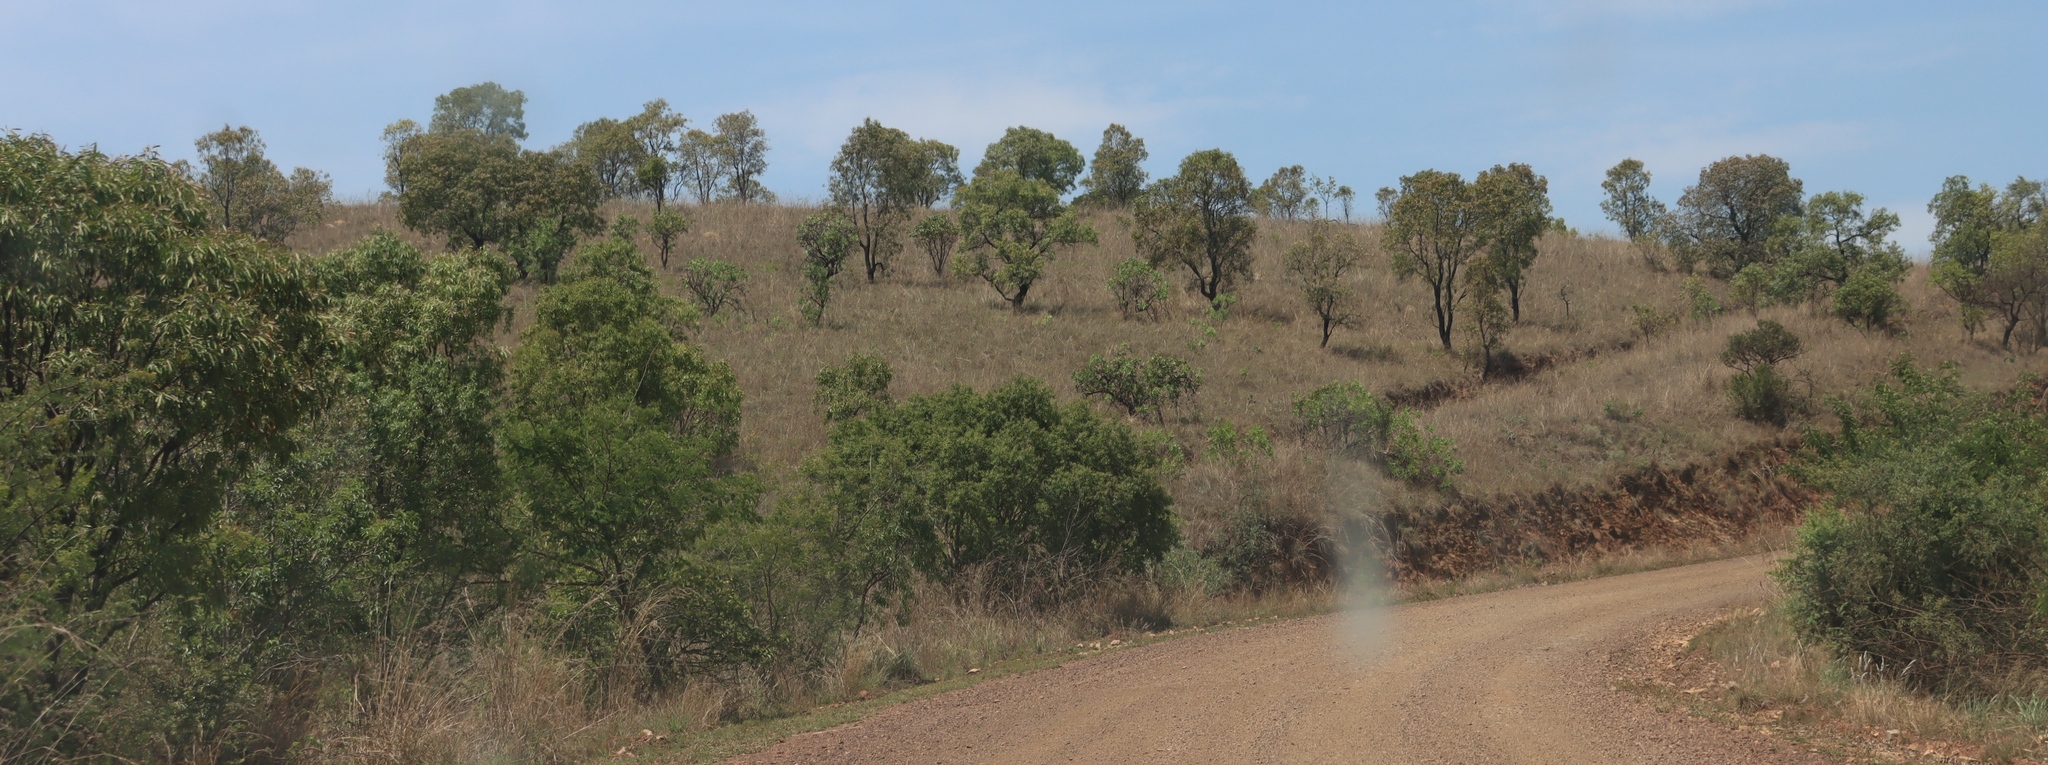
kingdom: Plantae
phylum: Tracheophyta
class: Magnoliopsida
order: Proteales
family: Proteaceae
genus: Faurea
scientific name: Faurea saligna
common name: African bean
